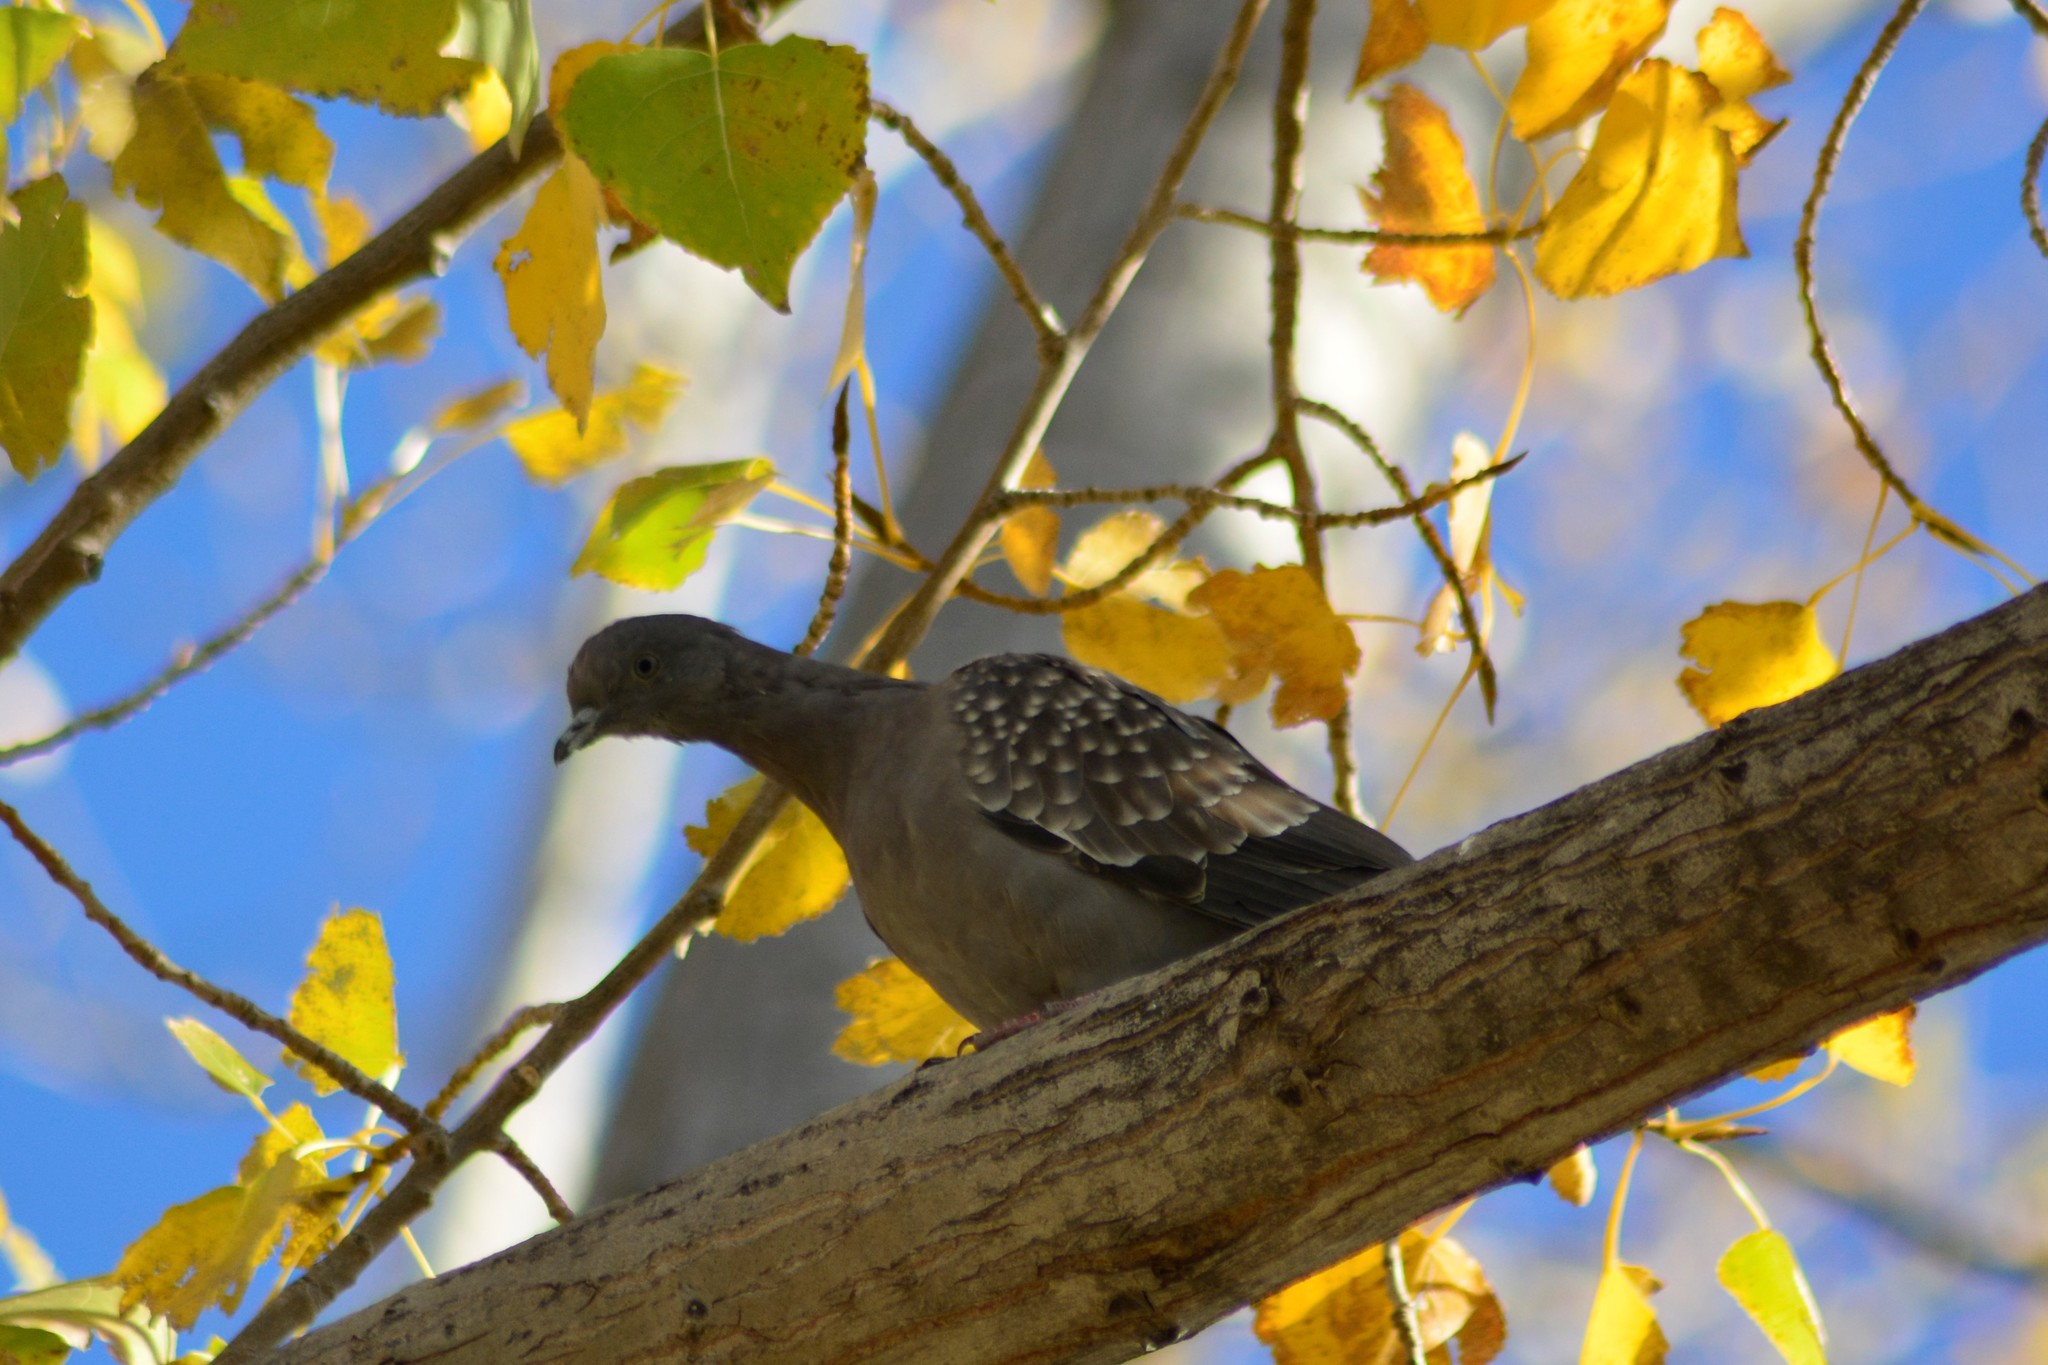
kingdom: Animalia
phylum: Chordata
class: Aves
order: Columbiformes
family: Columbidae
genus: Patagioenas
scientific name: Patagioenas maculosa
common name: Spot-winged pigeon
